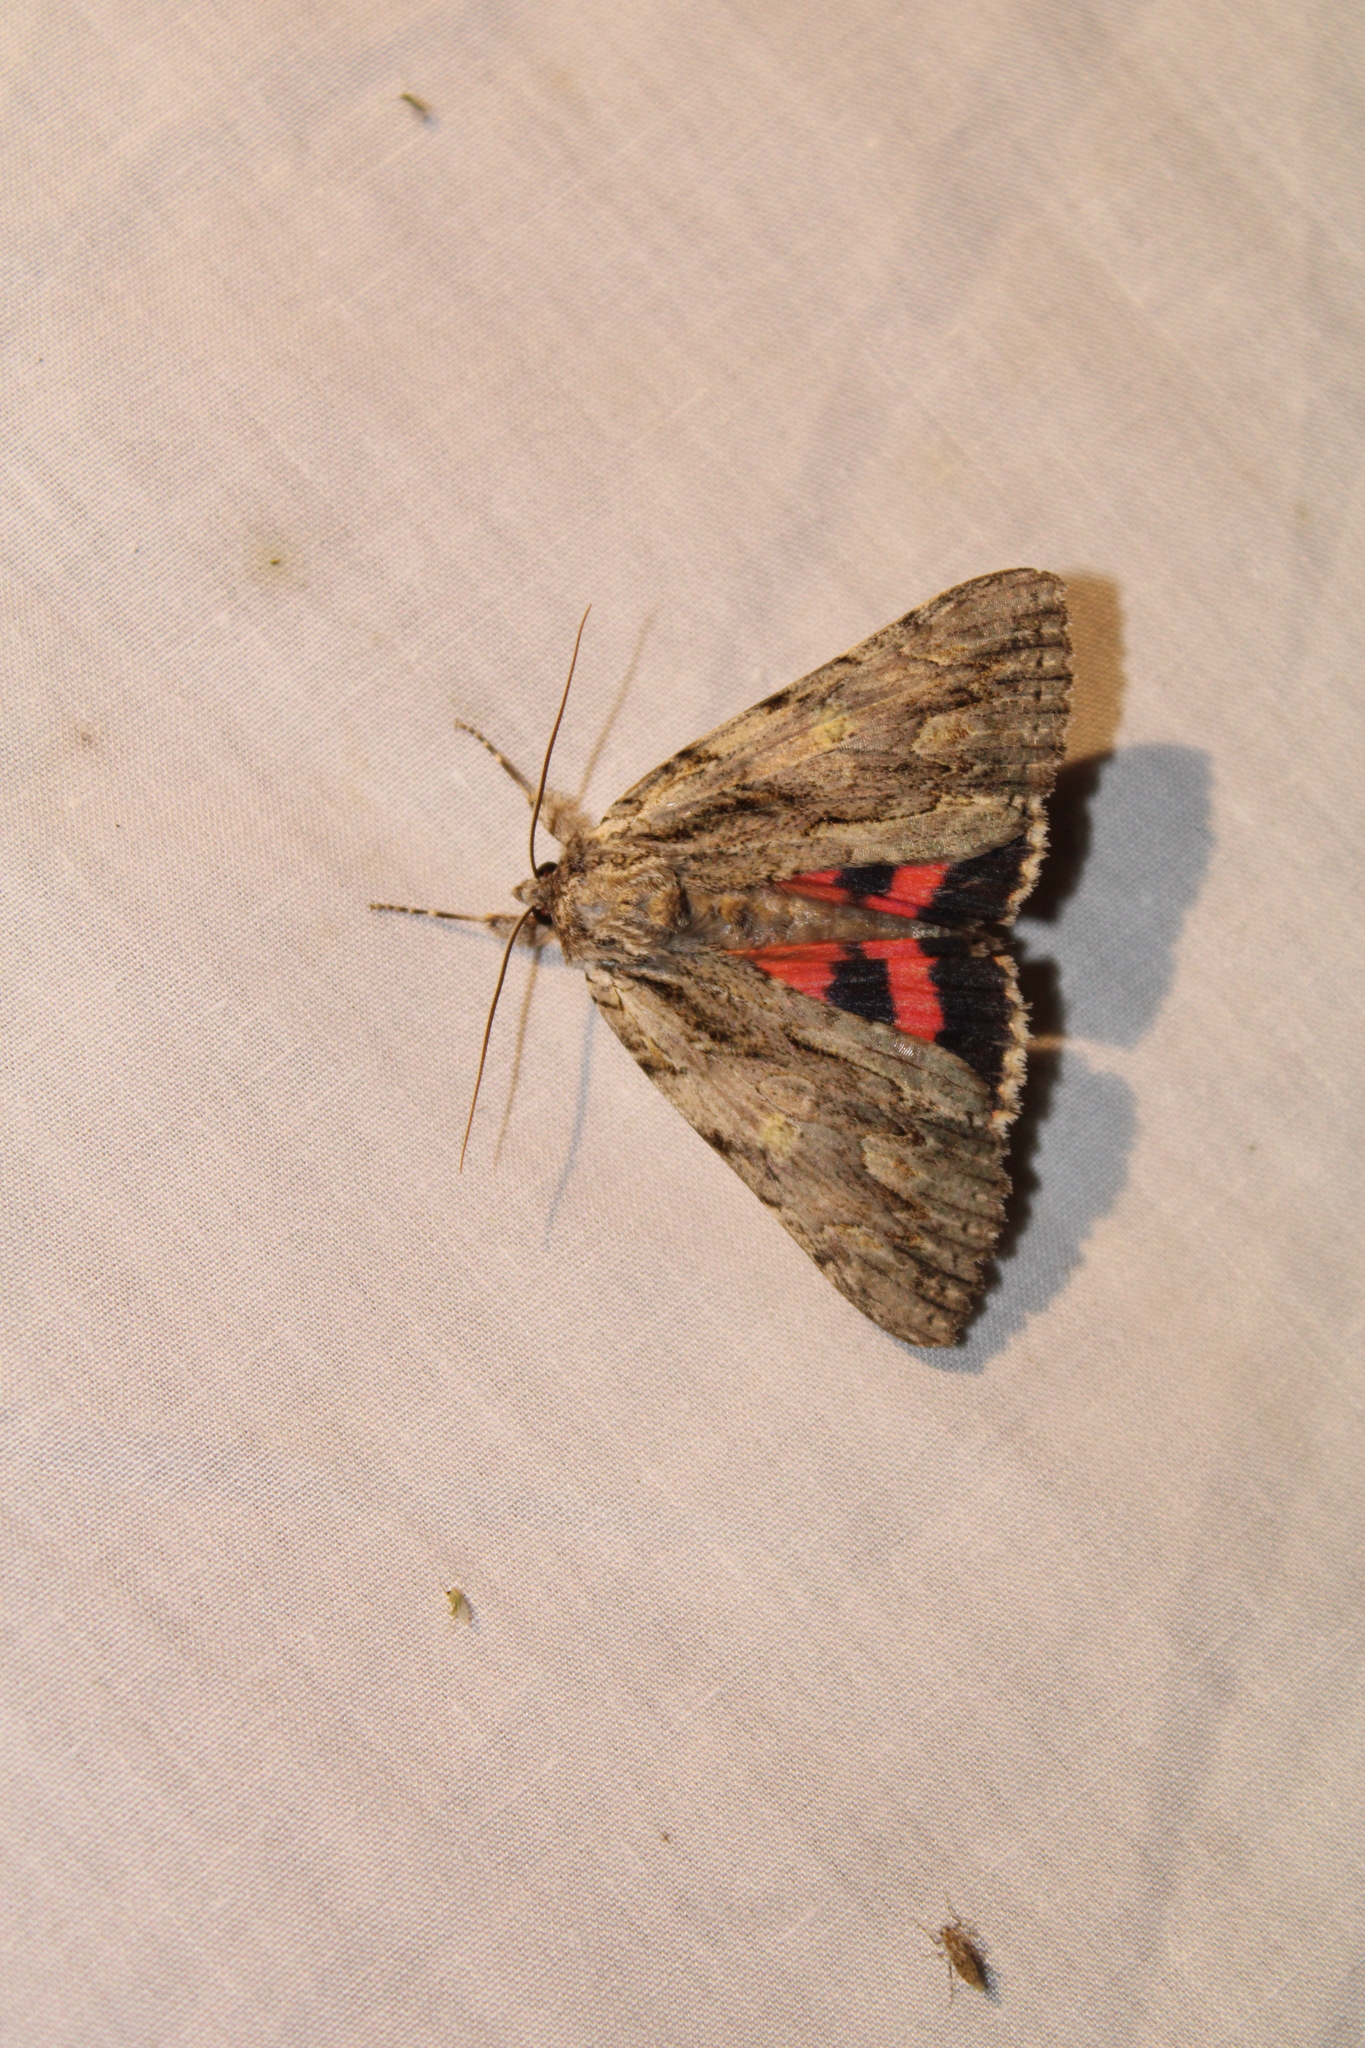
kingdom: Animalia
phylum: Arthropoda
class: Insecta
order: Lepidoptera
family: Erebidae
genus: Catocala
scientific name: Catocala coccinata
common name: Scarlet underwing
